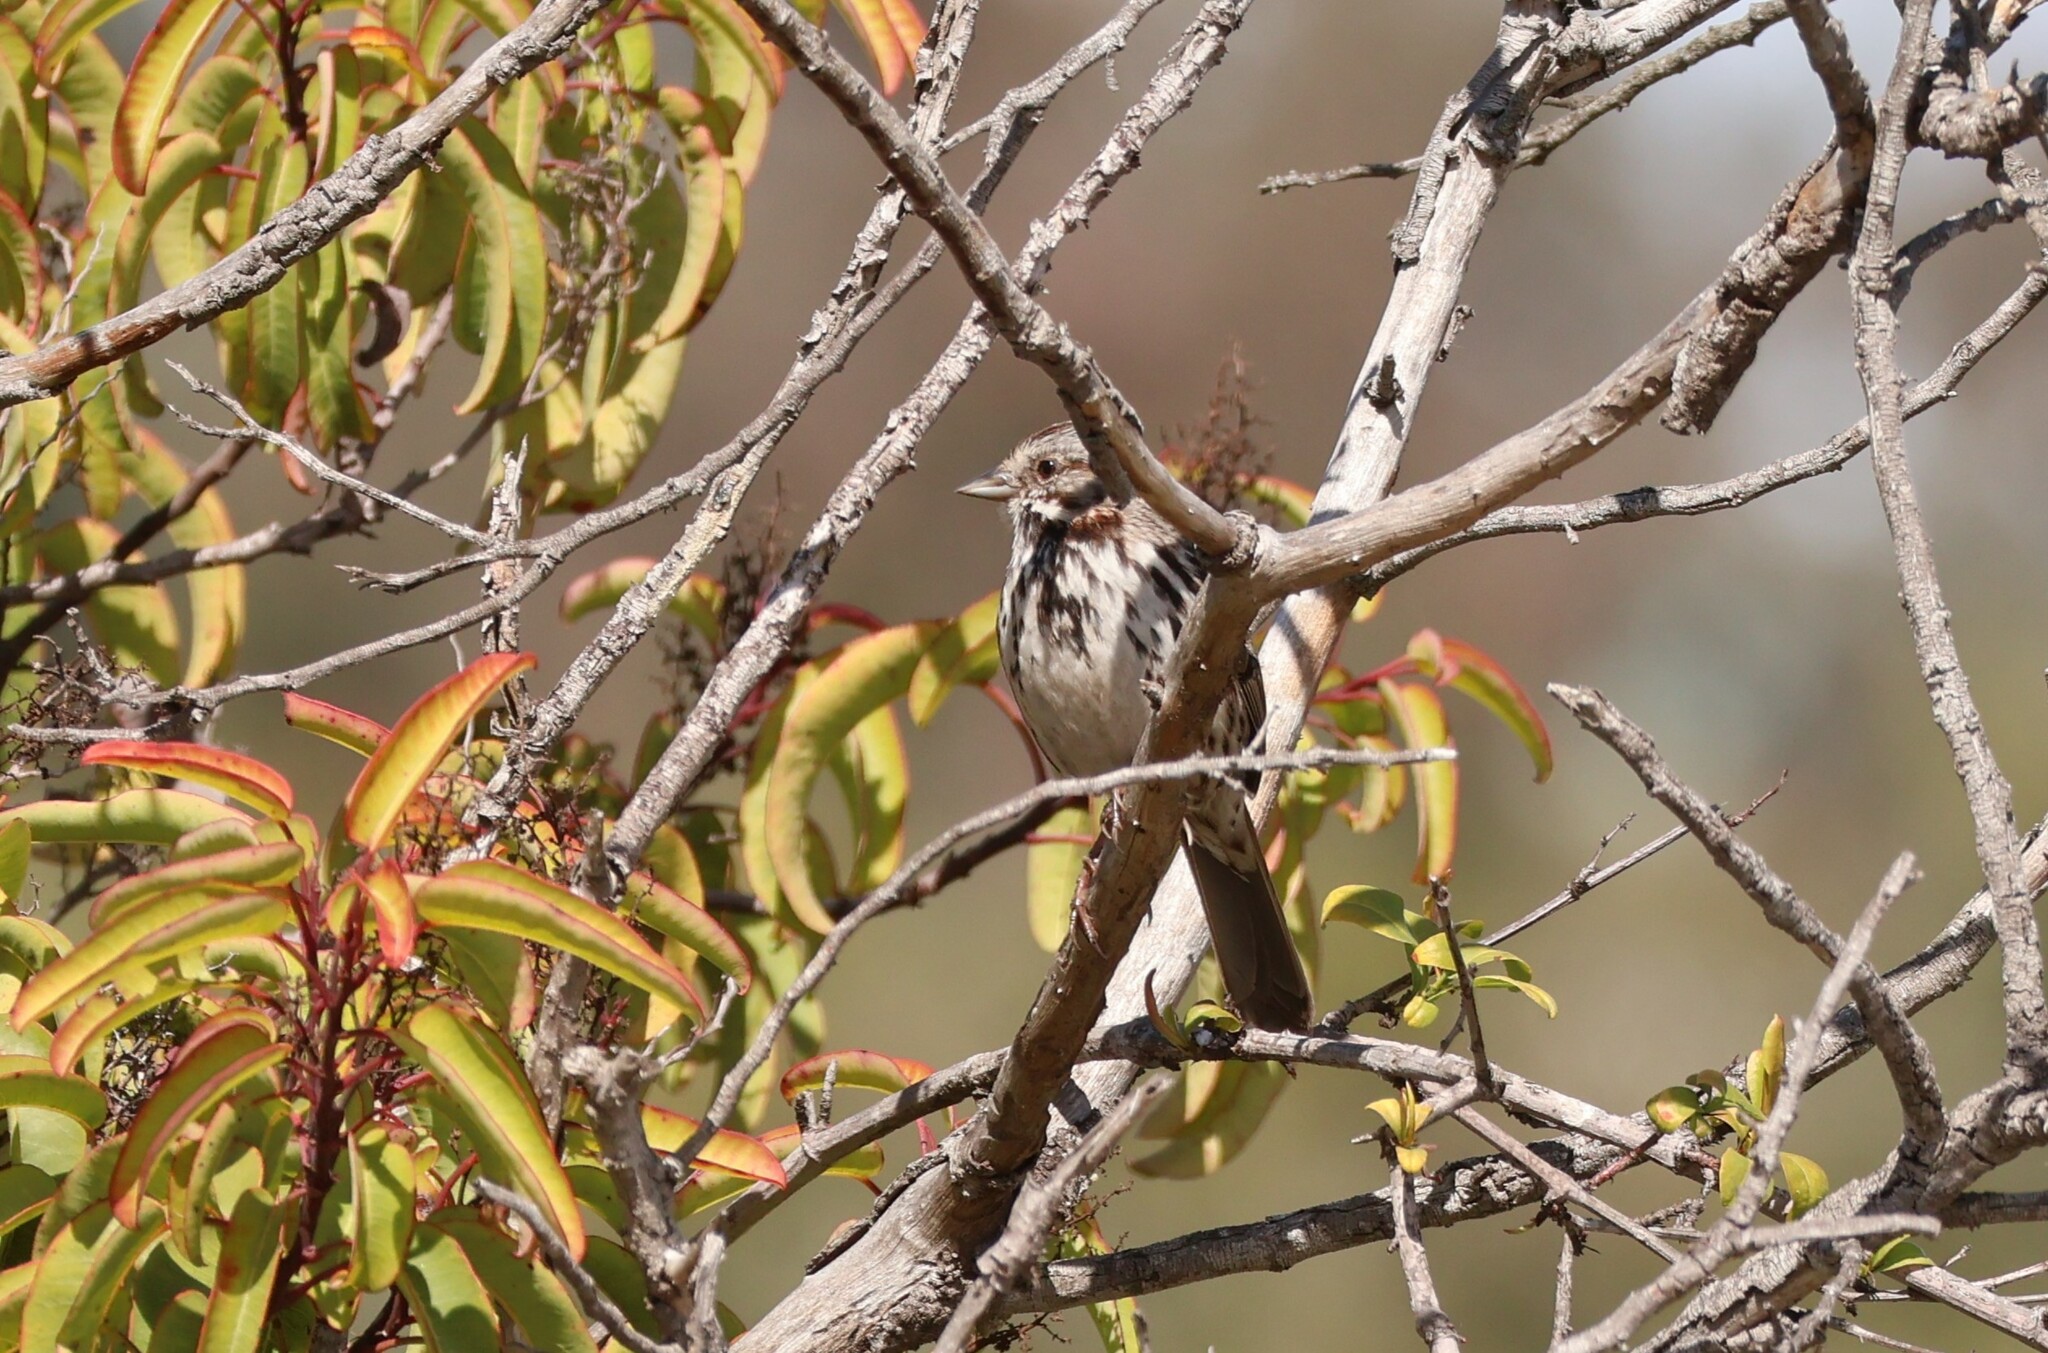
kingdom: Animalia
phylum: Chordata
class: Aves
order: Passeriformes
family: Passerellidae
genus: Melospiza
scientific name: Melospiza melodia
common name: Song sparrow
